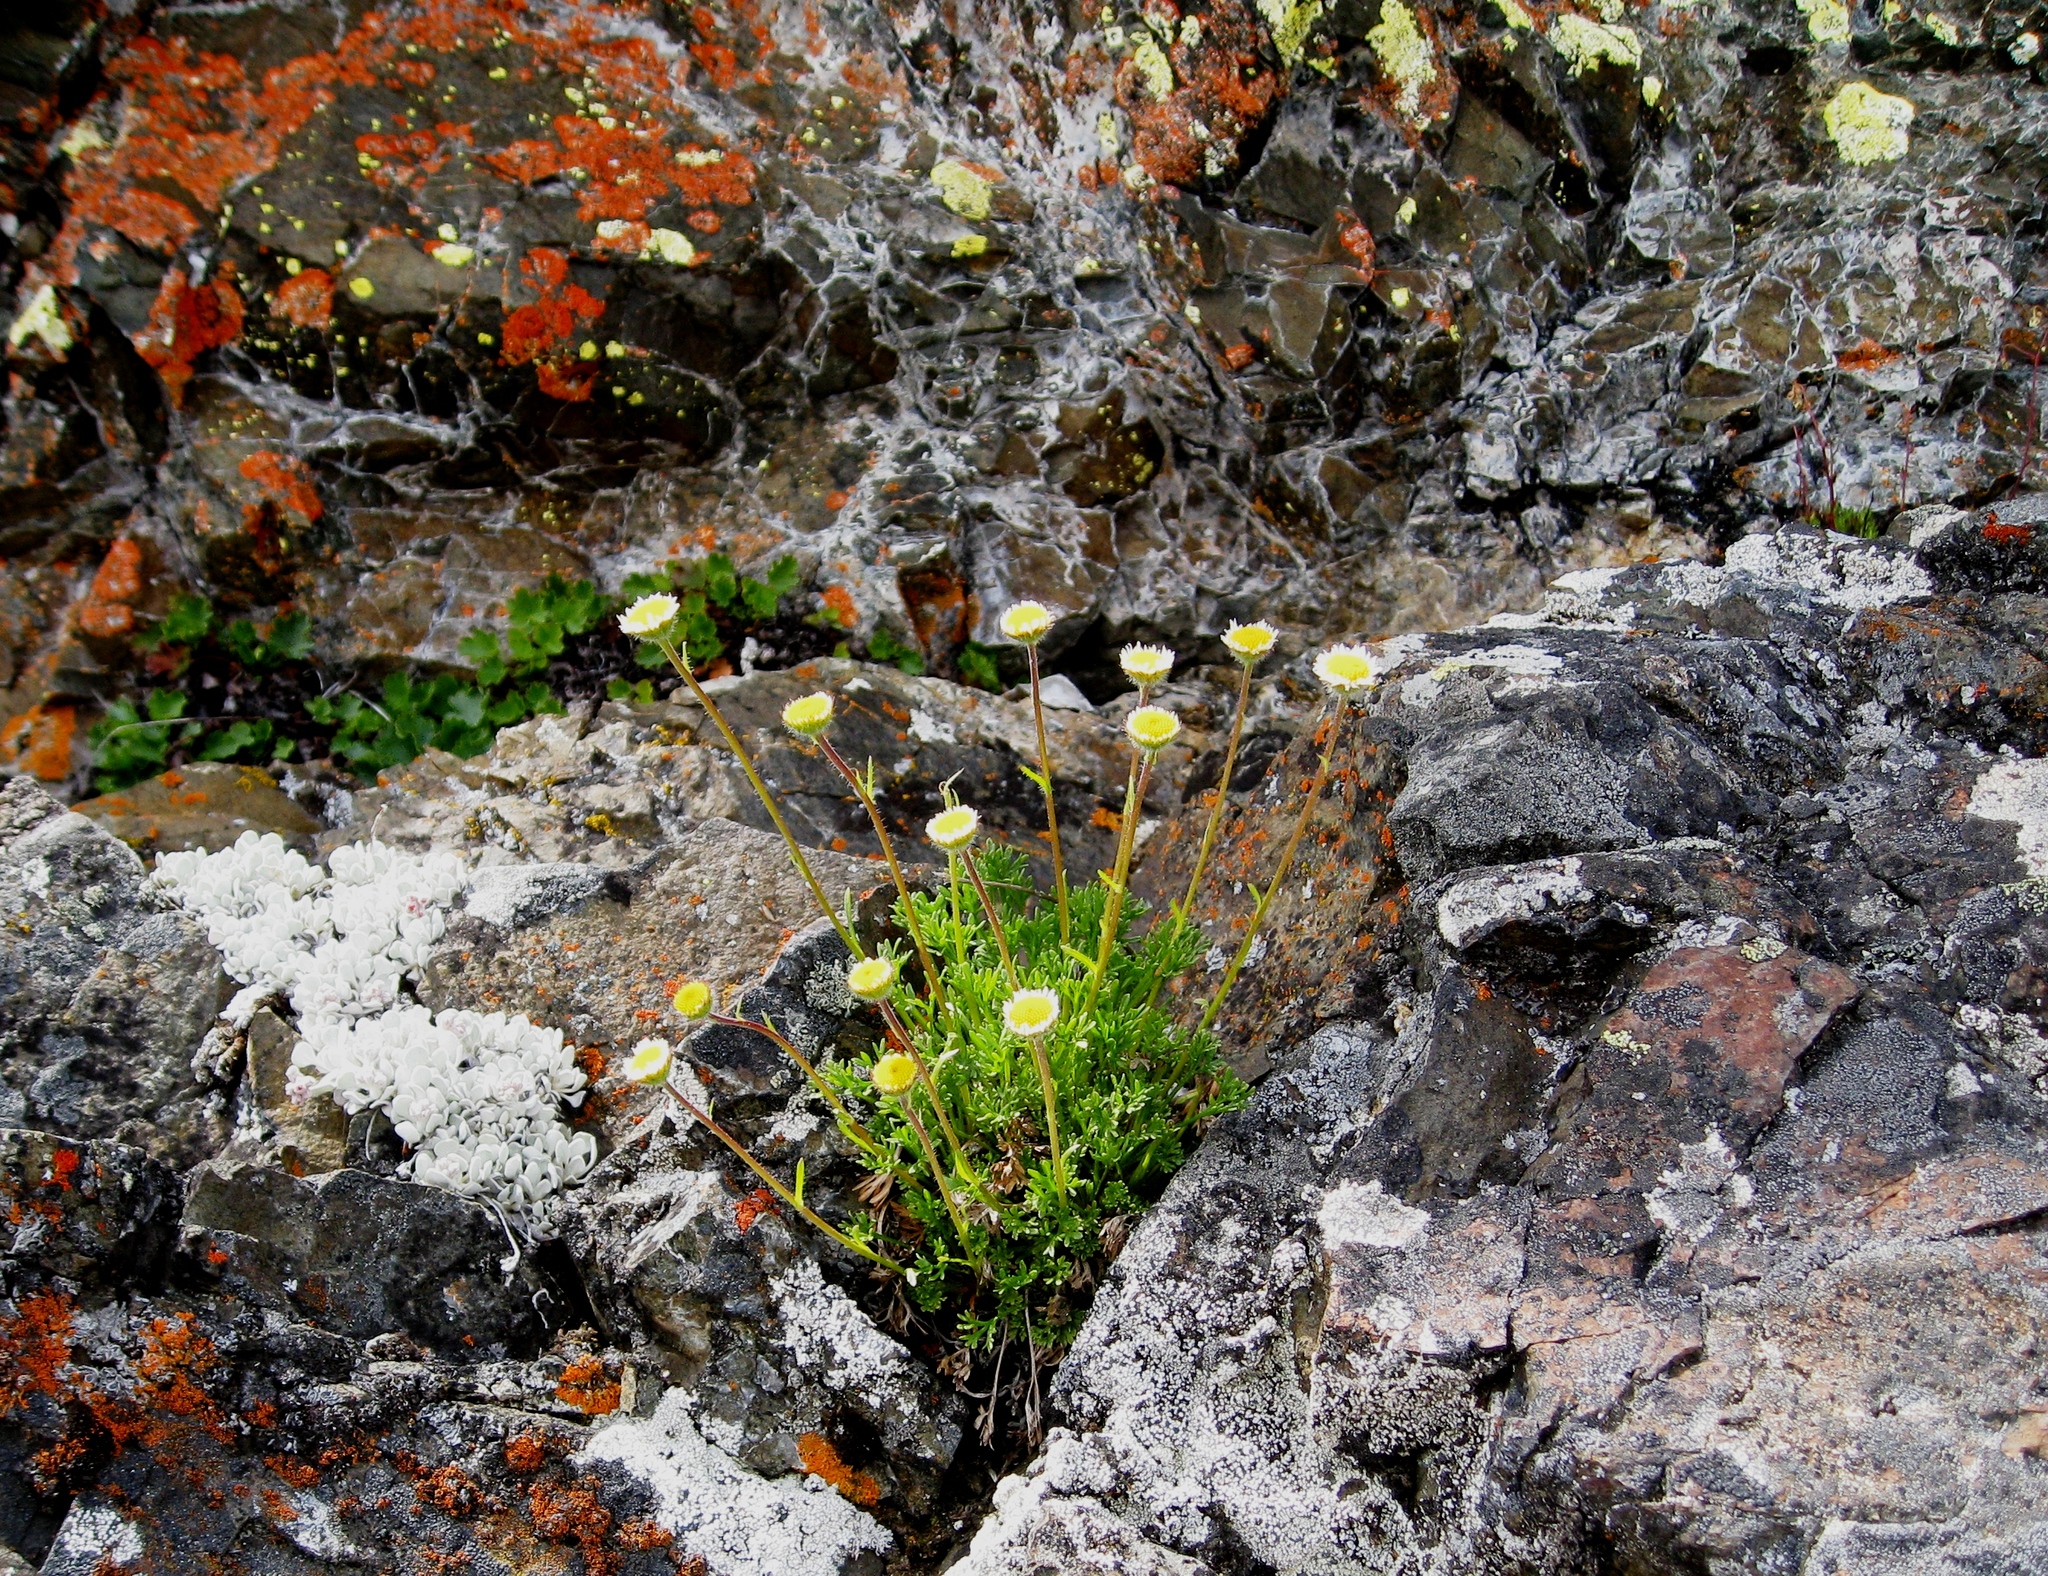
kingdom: Plantae
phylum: Tracheophyta
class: Magnoliopsida
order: Asterales
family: Asteraceae
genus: Erigeron
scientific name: Erigeron compositus
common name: Dwarf mountain fleabane
